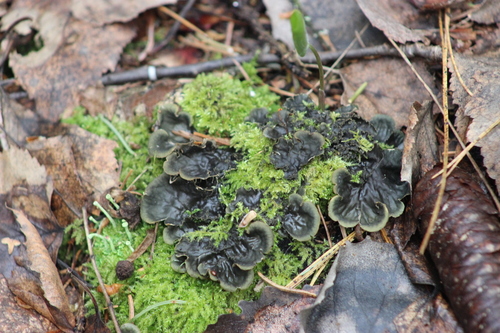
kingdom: Fungi
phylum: Ascomycota
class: Lecanoromycetes
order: Peltigerales
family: Peltigeraceae
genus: Peltigera
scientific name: Peltigera
